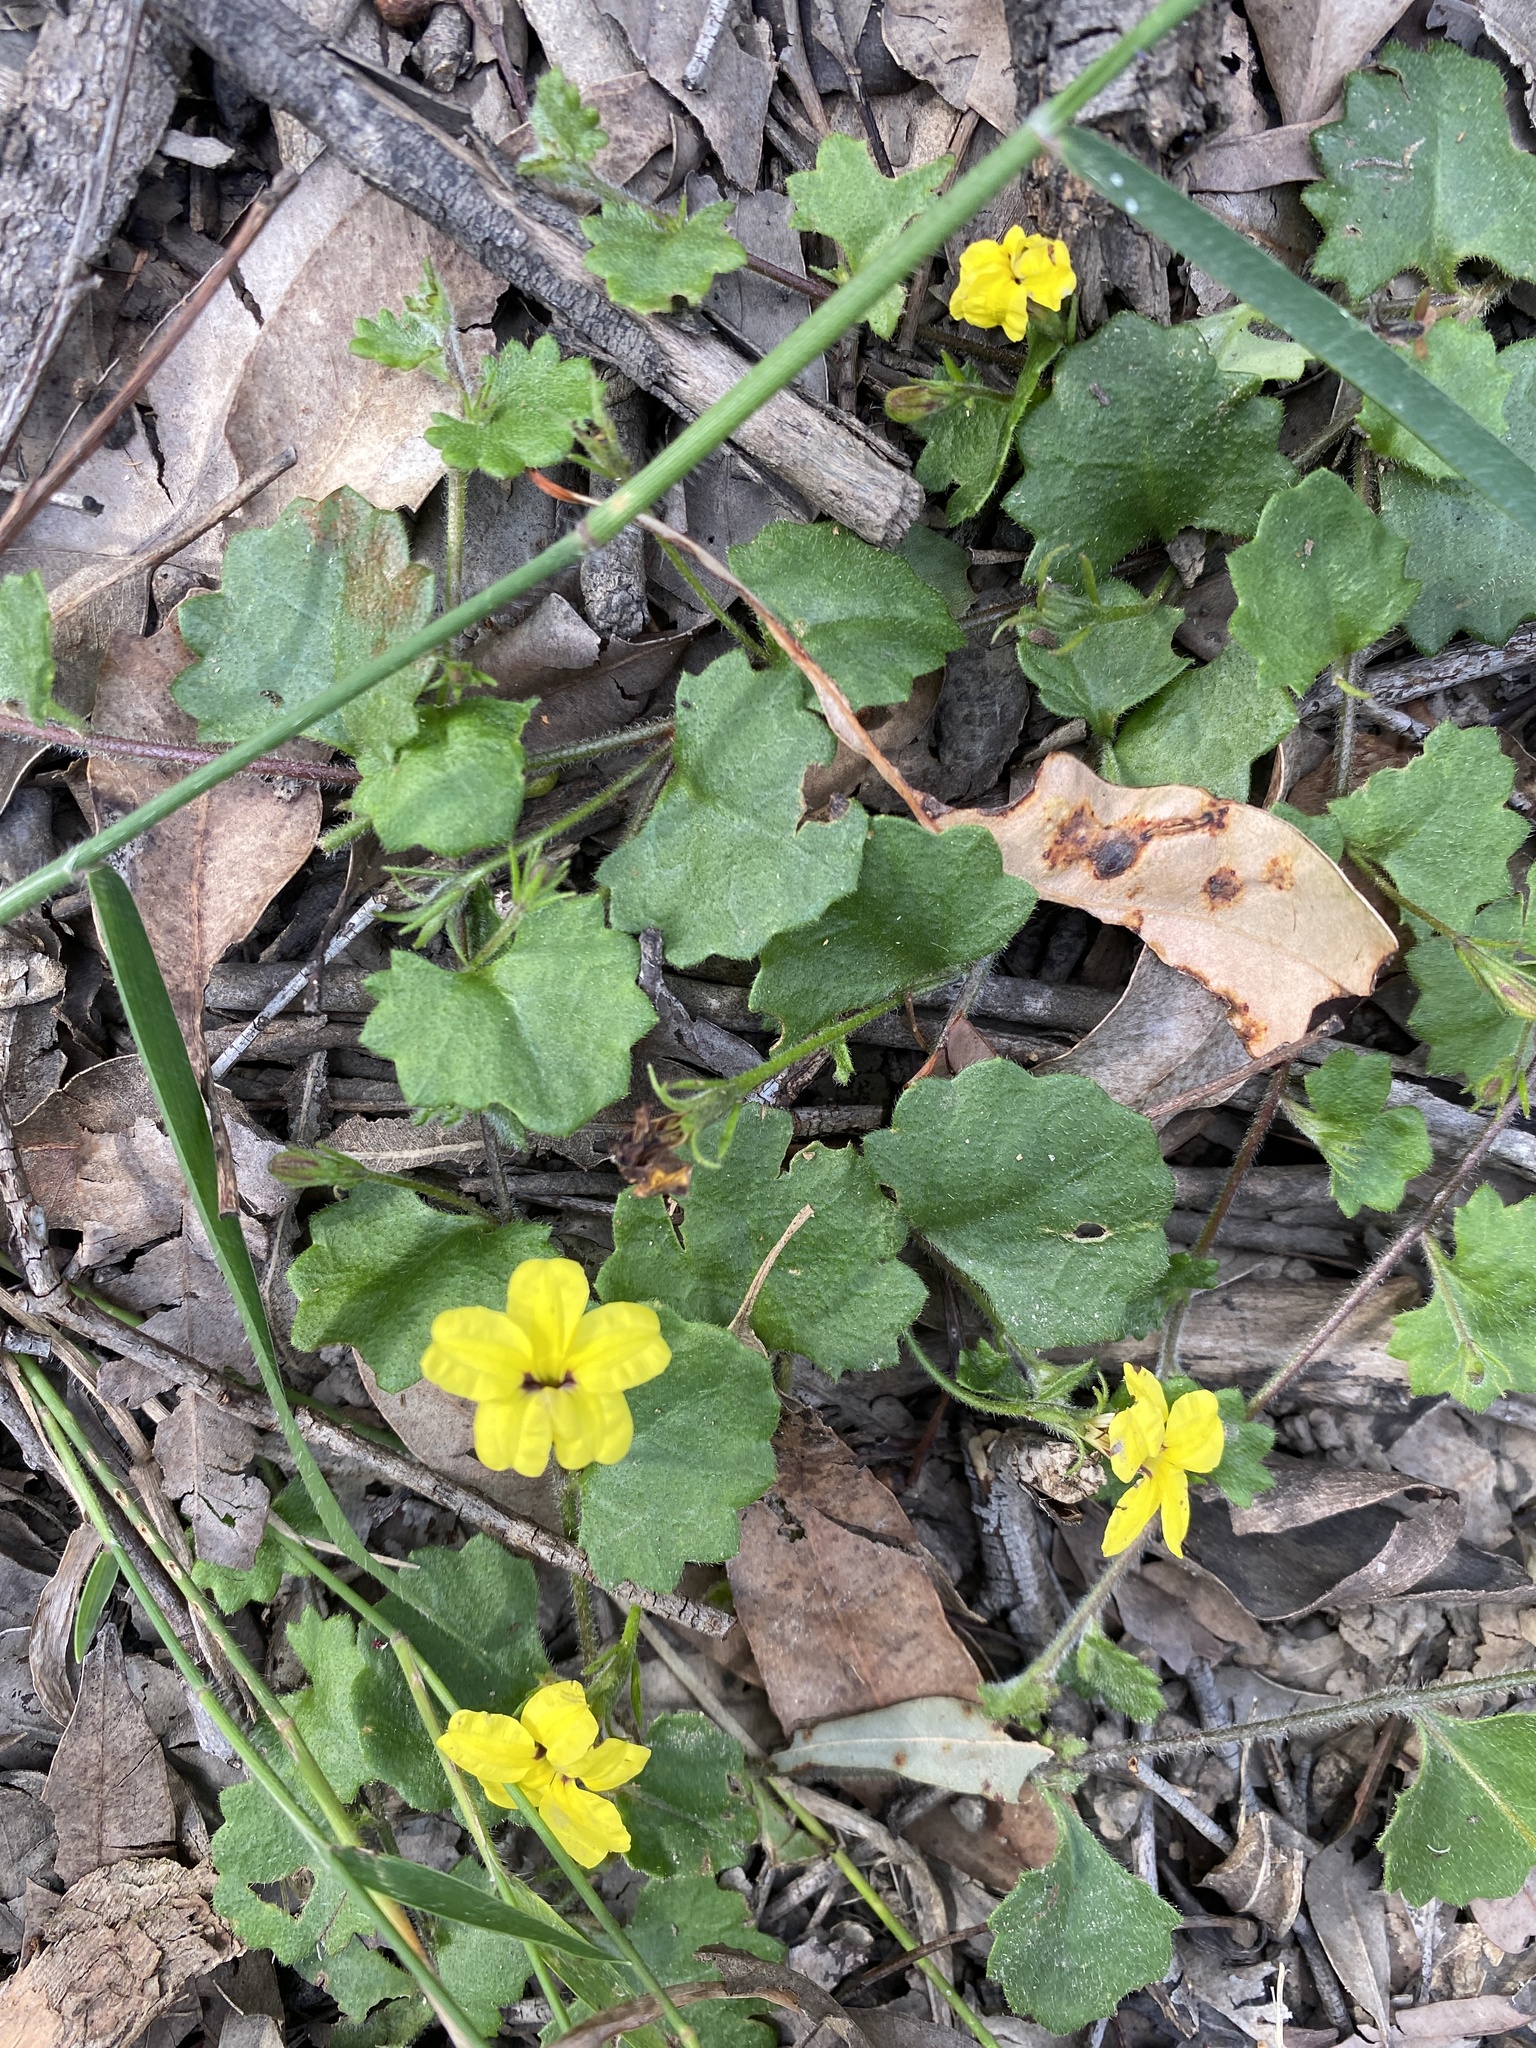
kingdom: Plantae
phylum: Tracheophyta
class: Magnoliopsida
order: Asterales
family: Goodeniaceae
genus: Goodenia
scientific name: Goodenia rotundifolia
